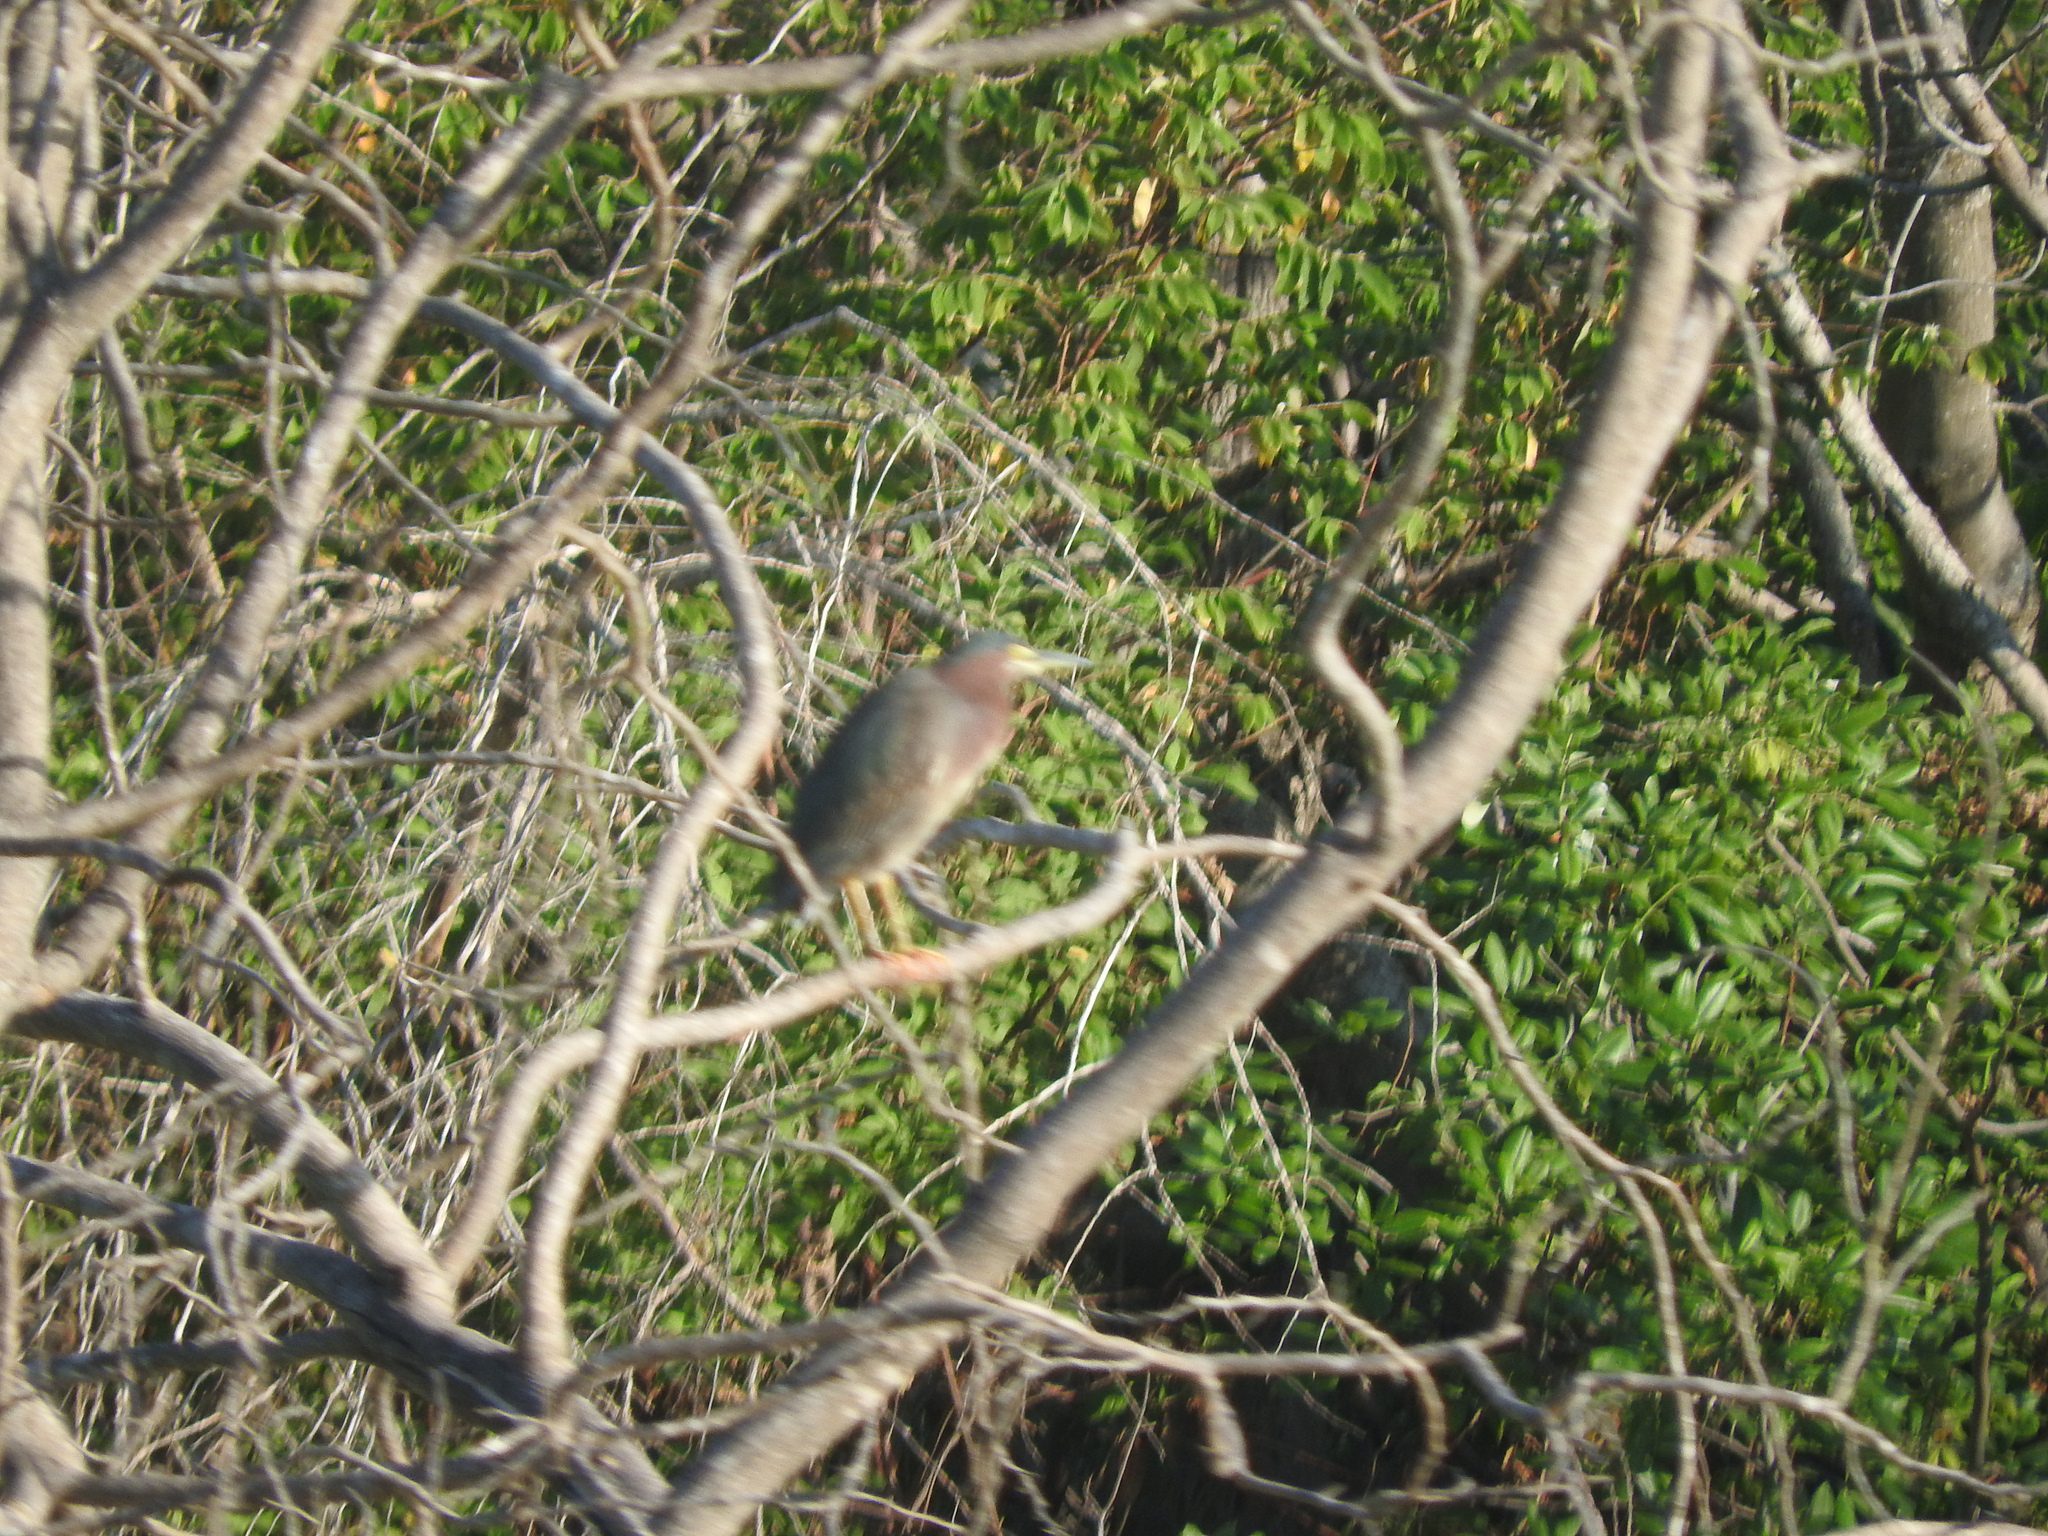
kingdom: Animalia
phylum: Chordata
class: Aves
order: Pelecaniformes
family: Ardeidae
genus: Butorides
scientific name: Butorides virescens
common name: Green heron
